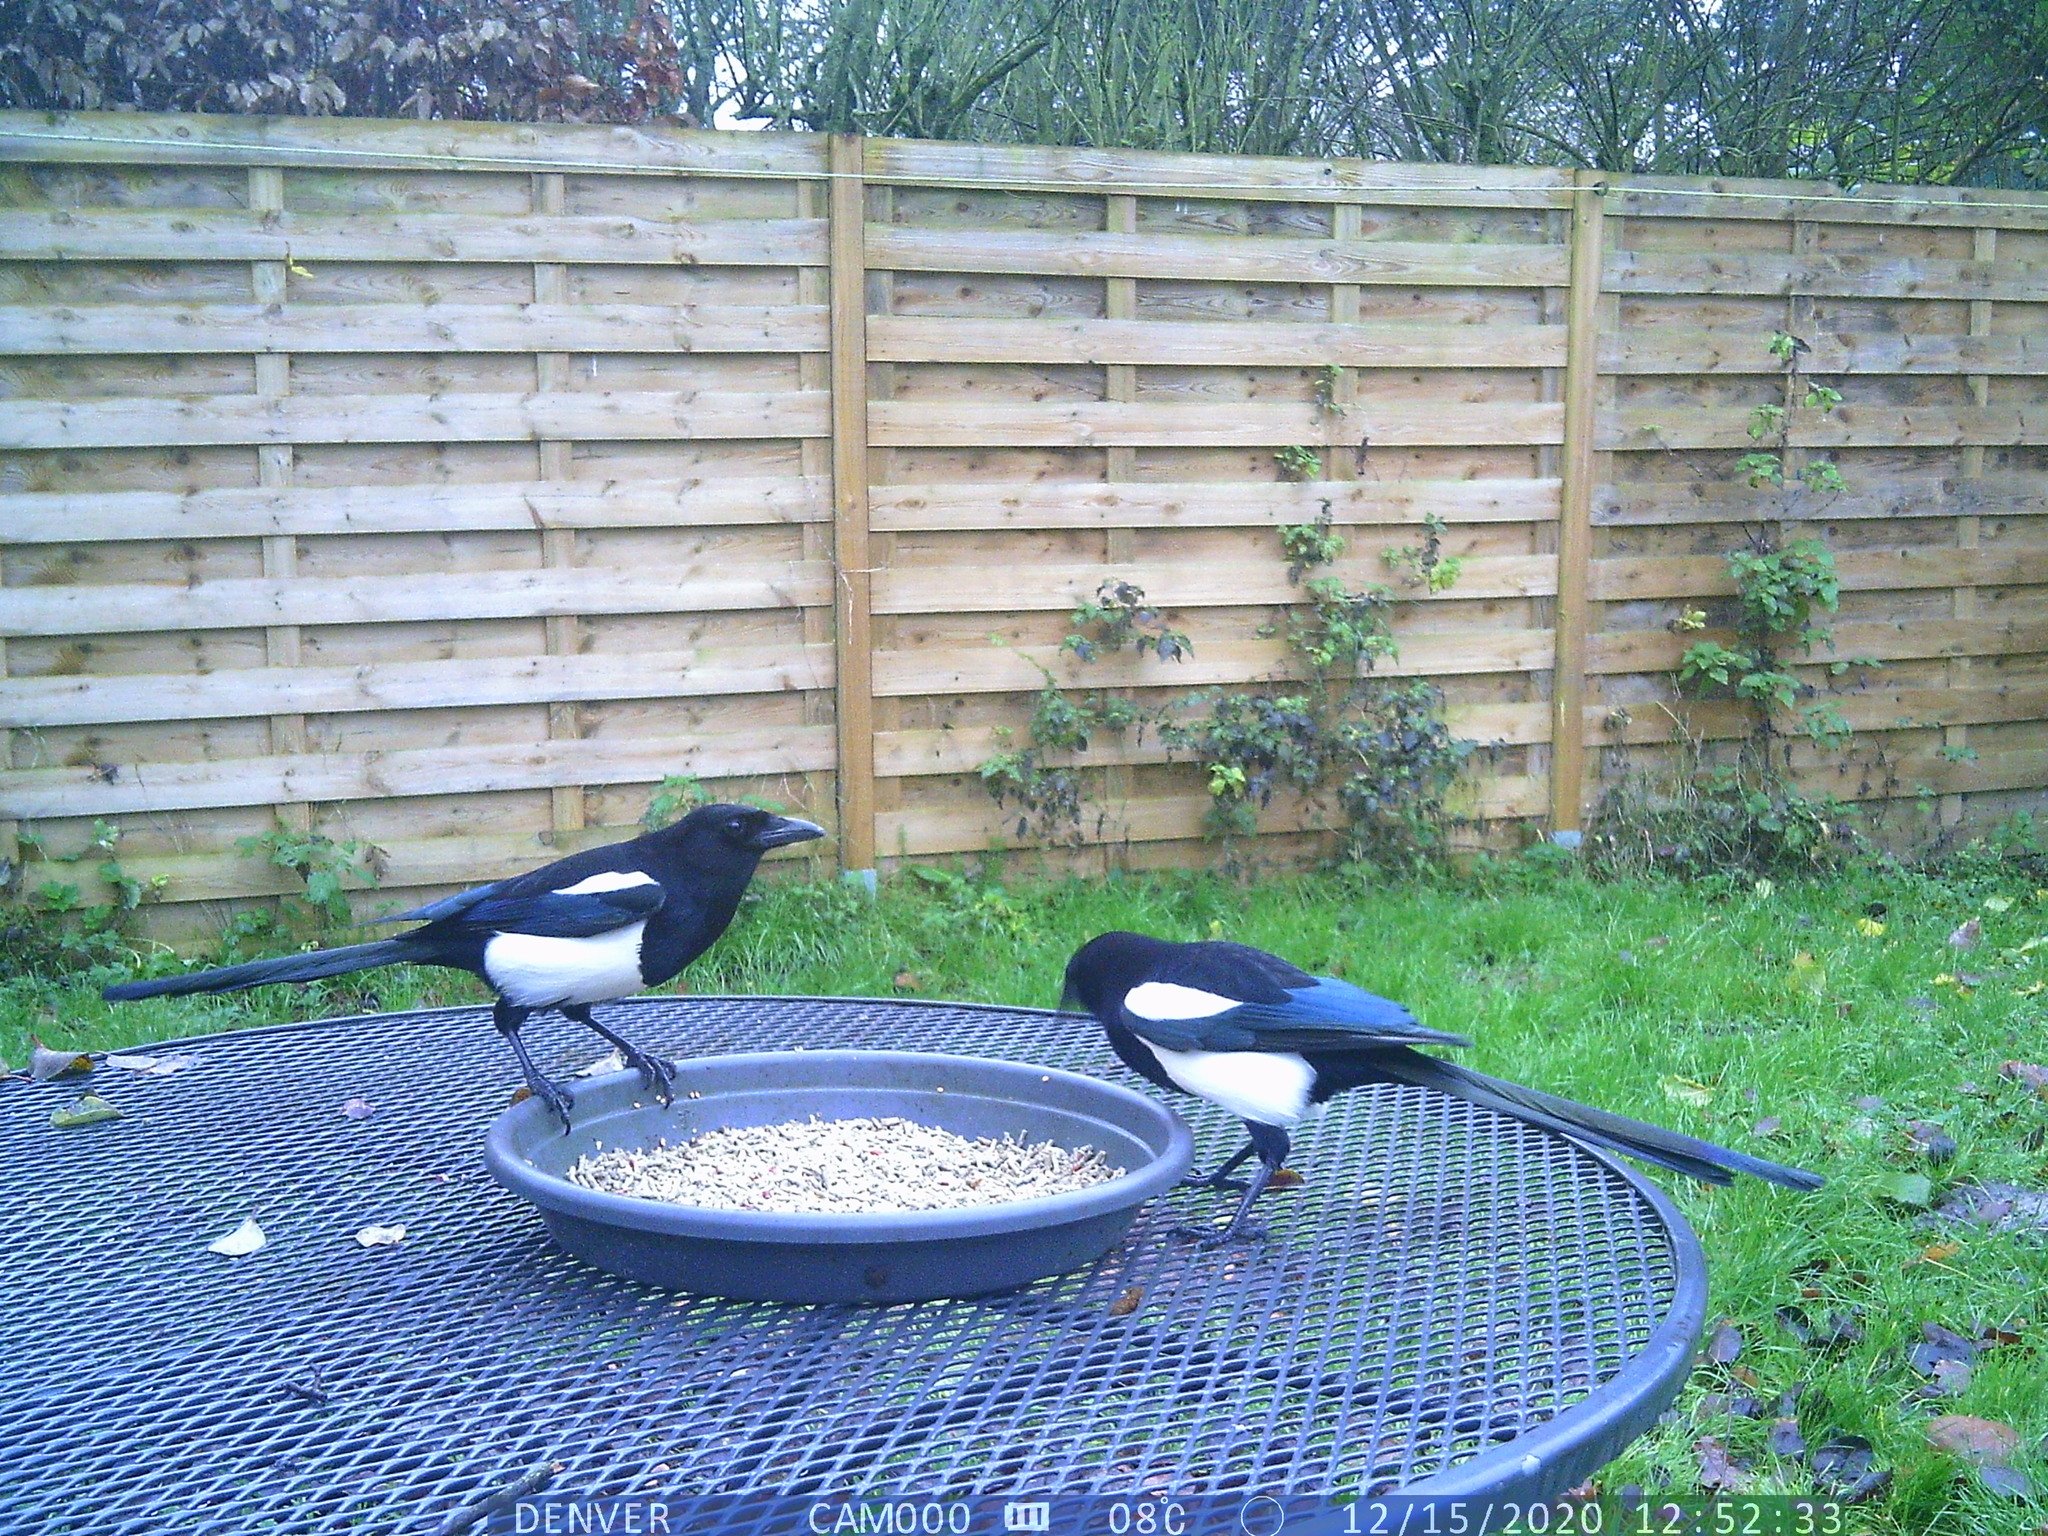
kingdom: Animalia
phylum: Chordata
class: Aves
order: Passeriformes
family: Corvidae
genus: Pica
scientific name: Pica pica
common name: Eurasian magpie
